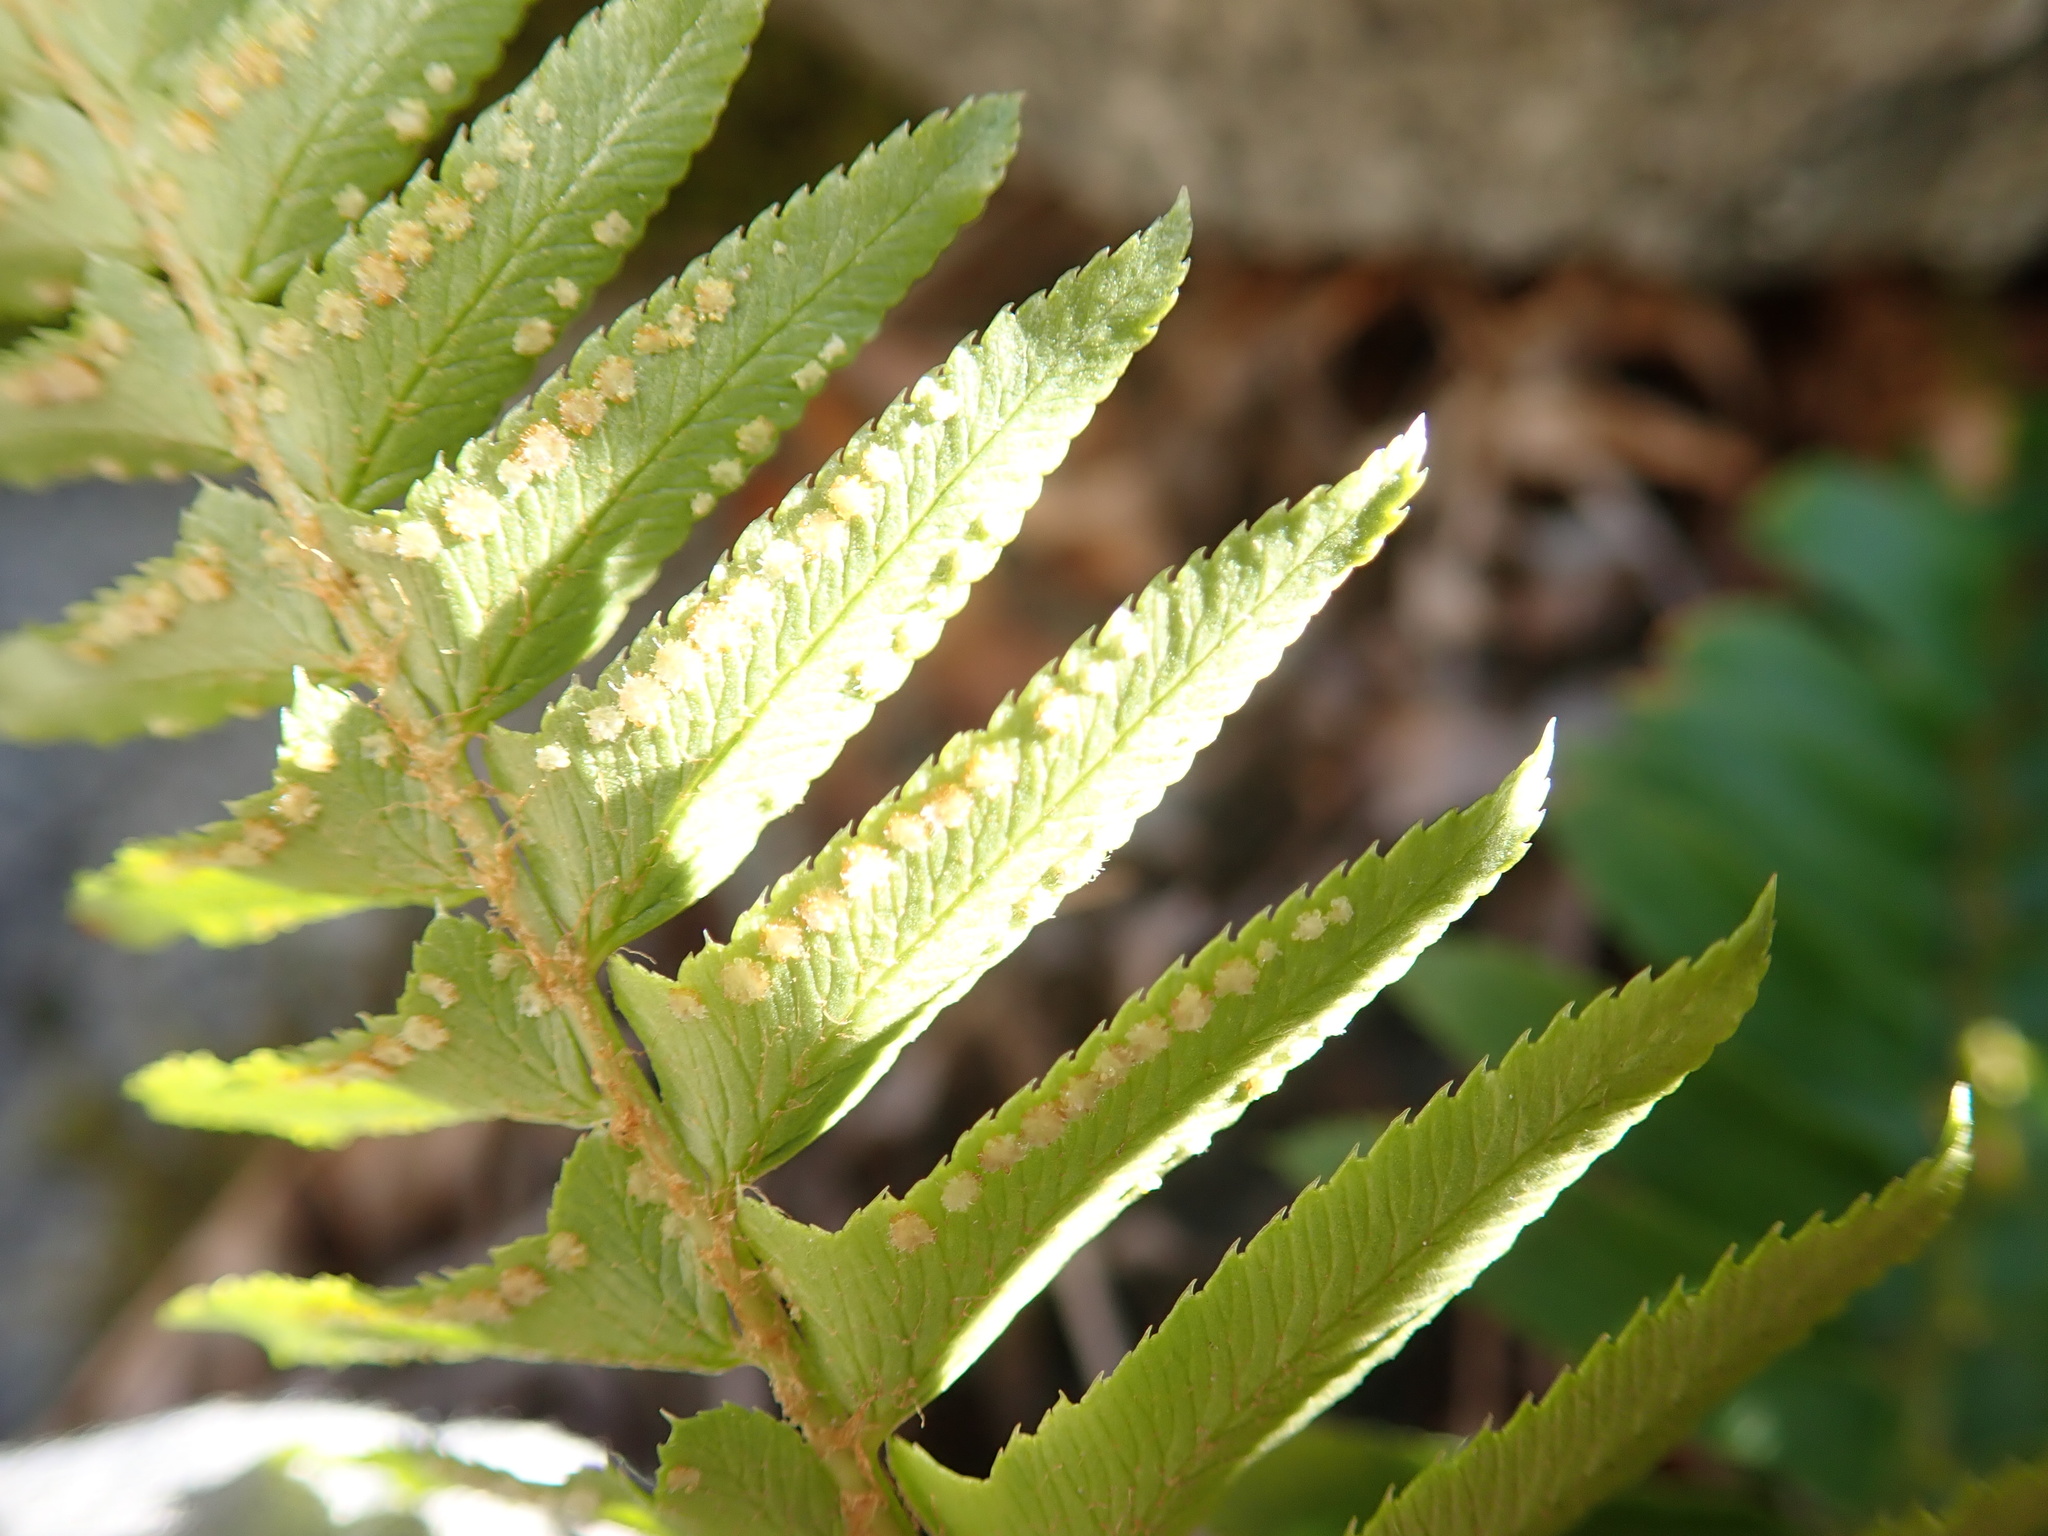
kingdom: Plantae
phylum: Tracheophyta
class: Polypodiopsida
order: Polypodiales
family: Dryopteridaceae
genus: Polystichum
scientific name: Polystichum munitum
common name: Western sword-fern
